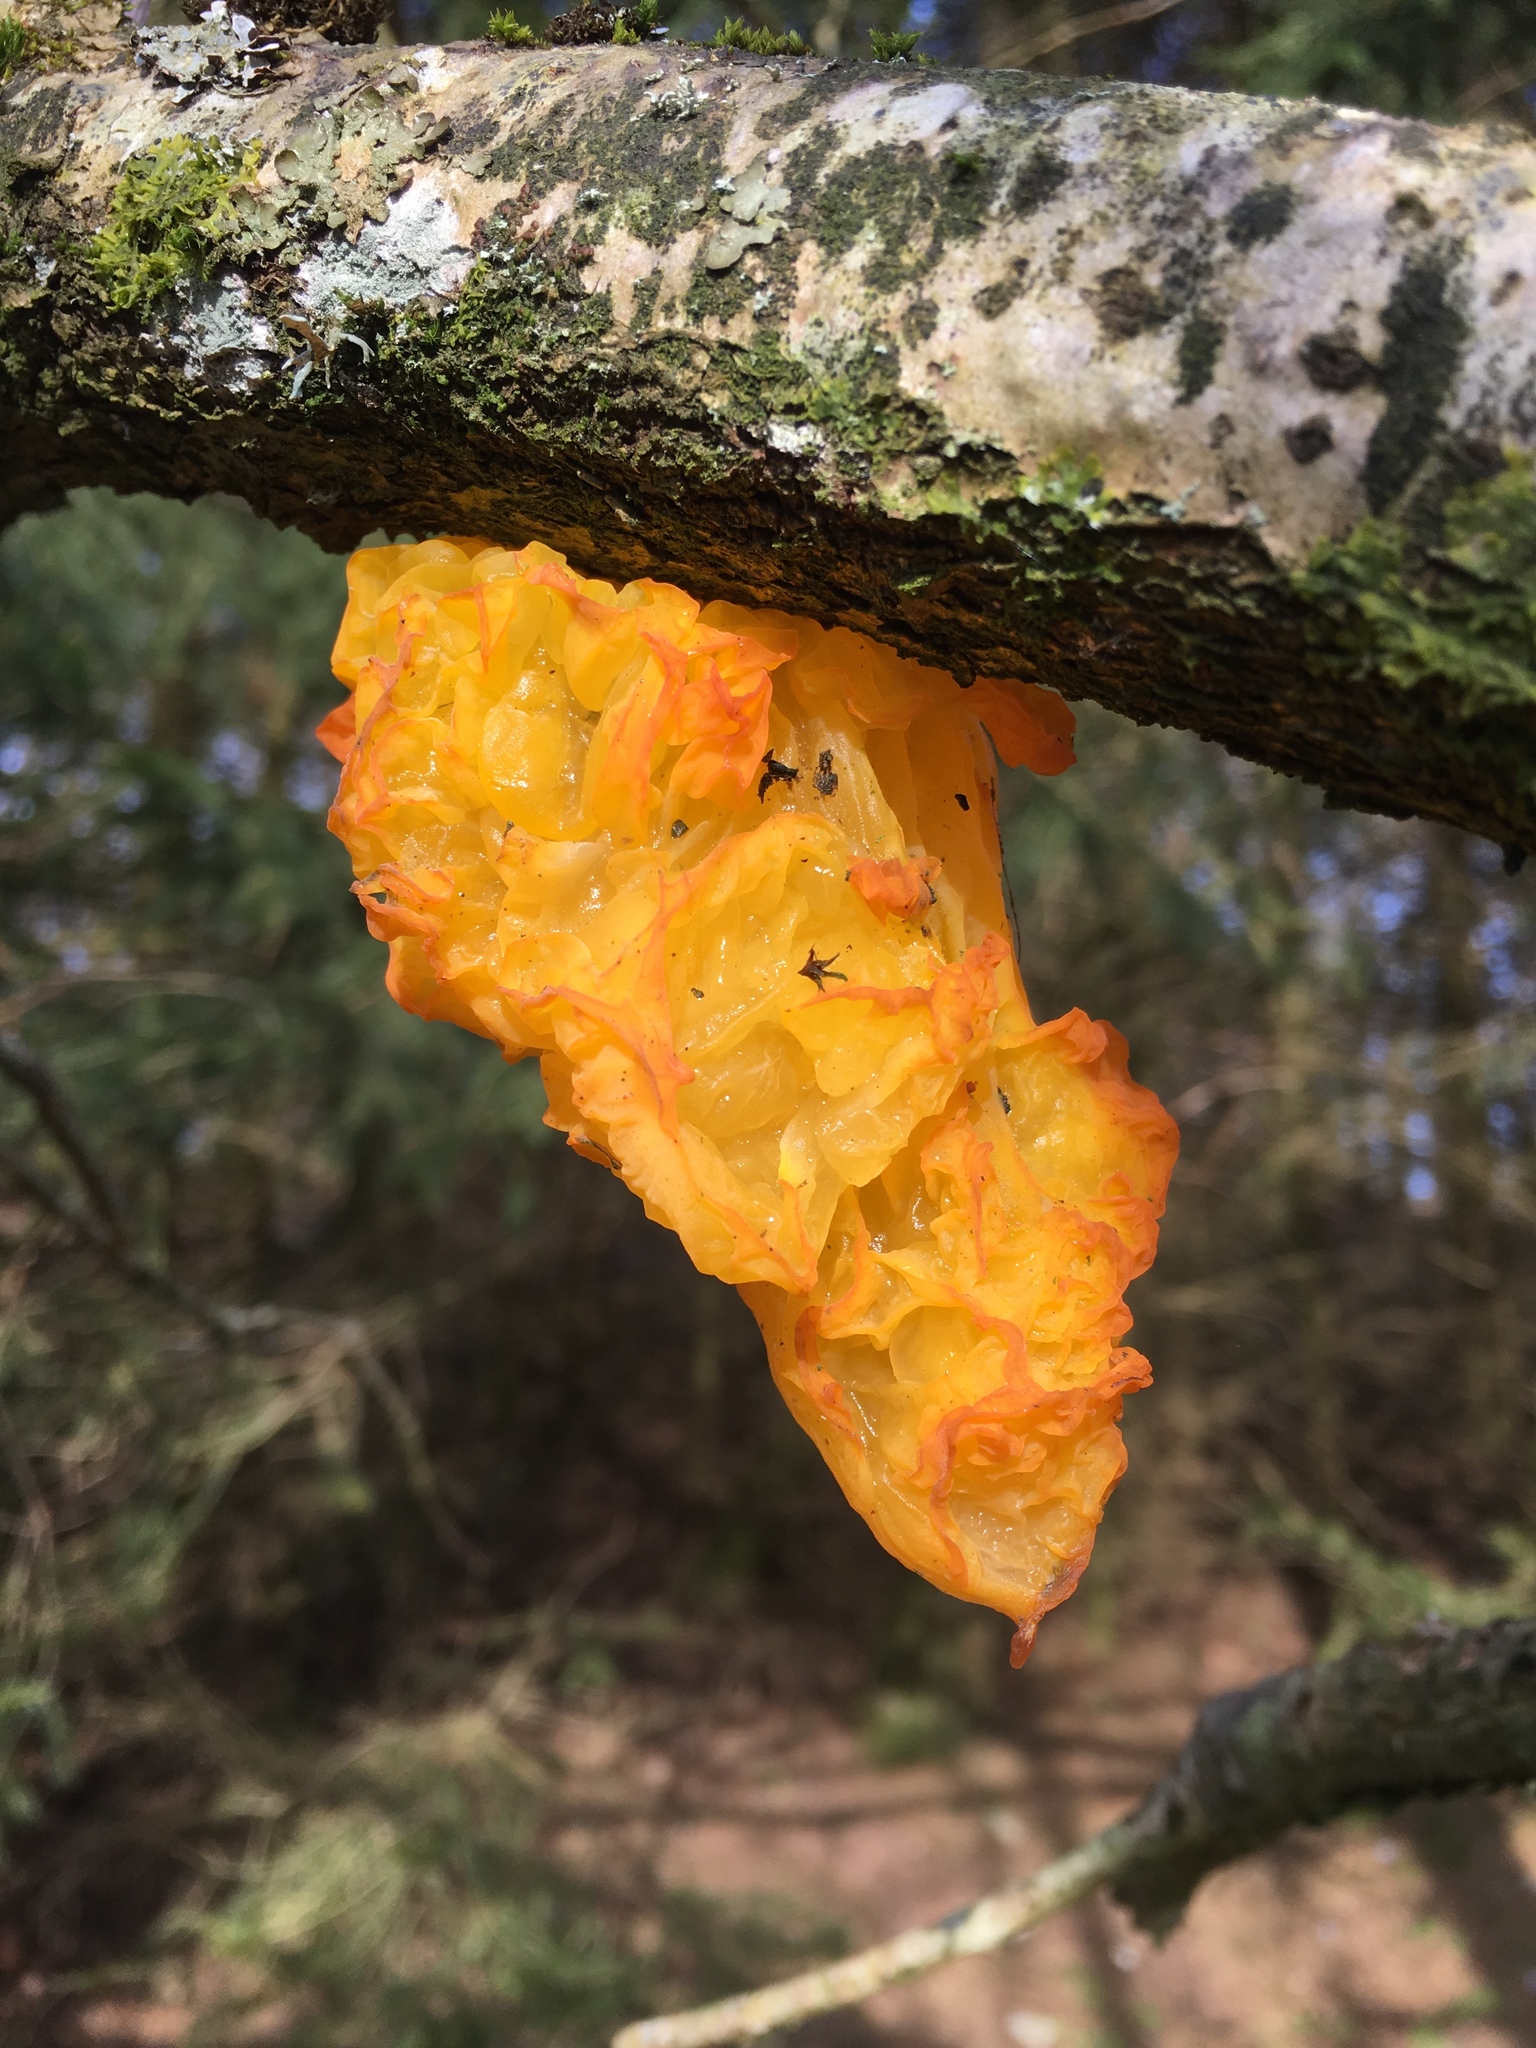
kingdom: Fungi
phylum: Basidiomycota
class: Tremellomycetes
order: Tremellales
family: Tremellaceae
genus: Tremella
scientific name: Tremella mesenterica
